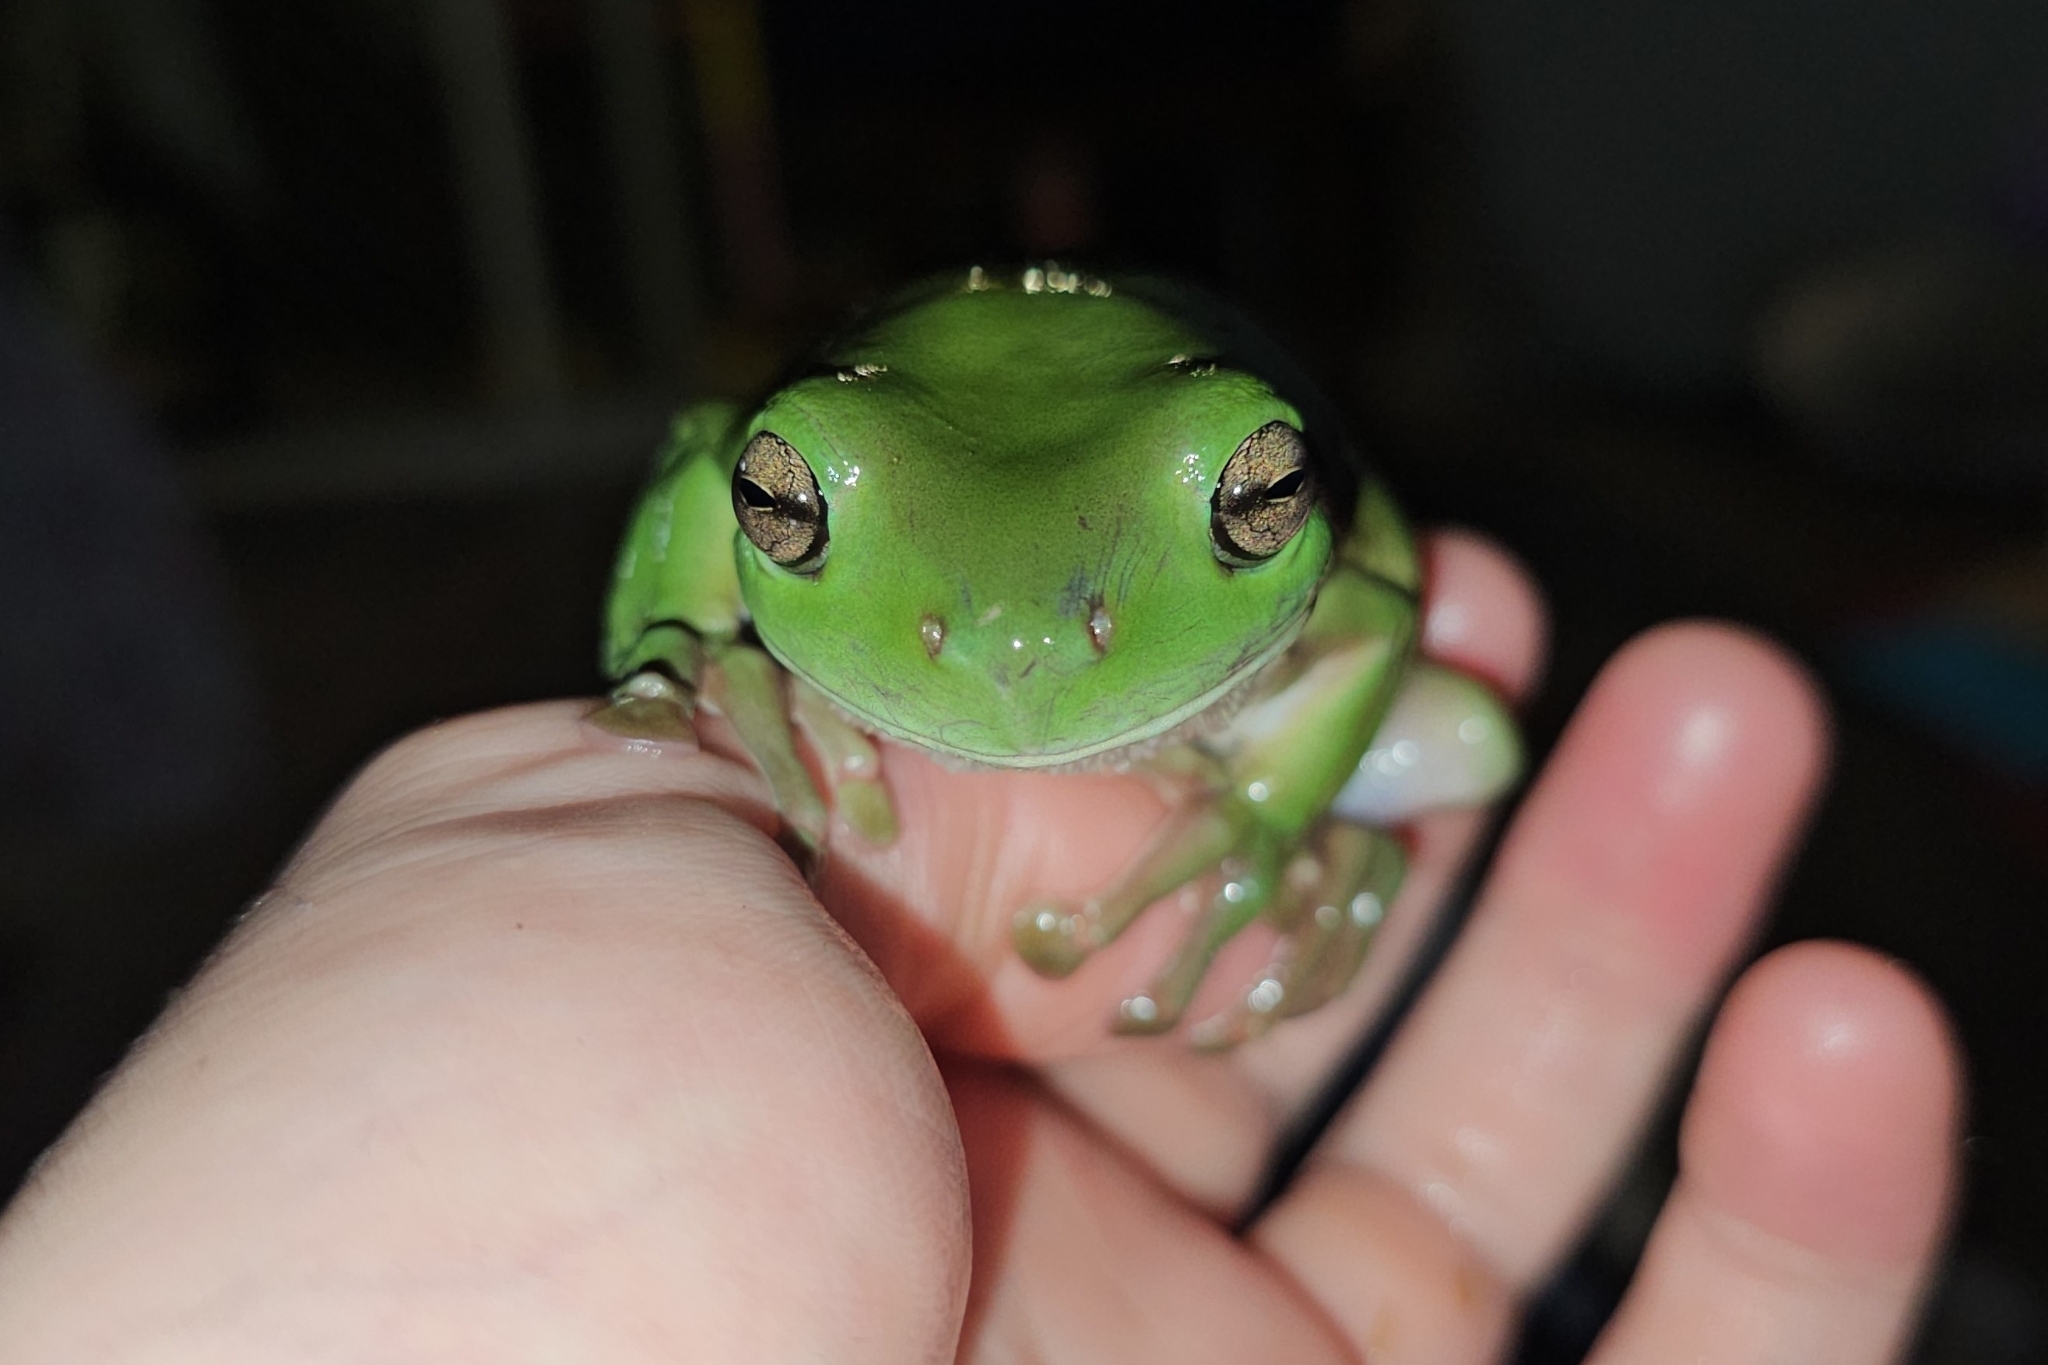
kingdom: Animalia
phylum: Chordata
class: Amphibia
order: Anura
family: Pelodryadidae
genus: Ranoidea
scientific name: Ranoidea caerulea
